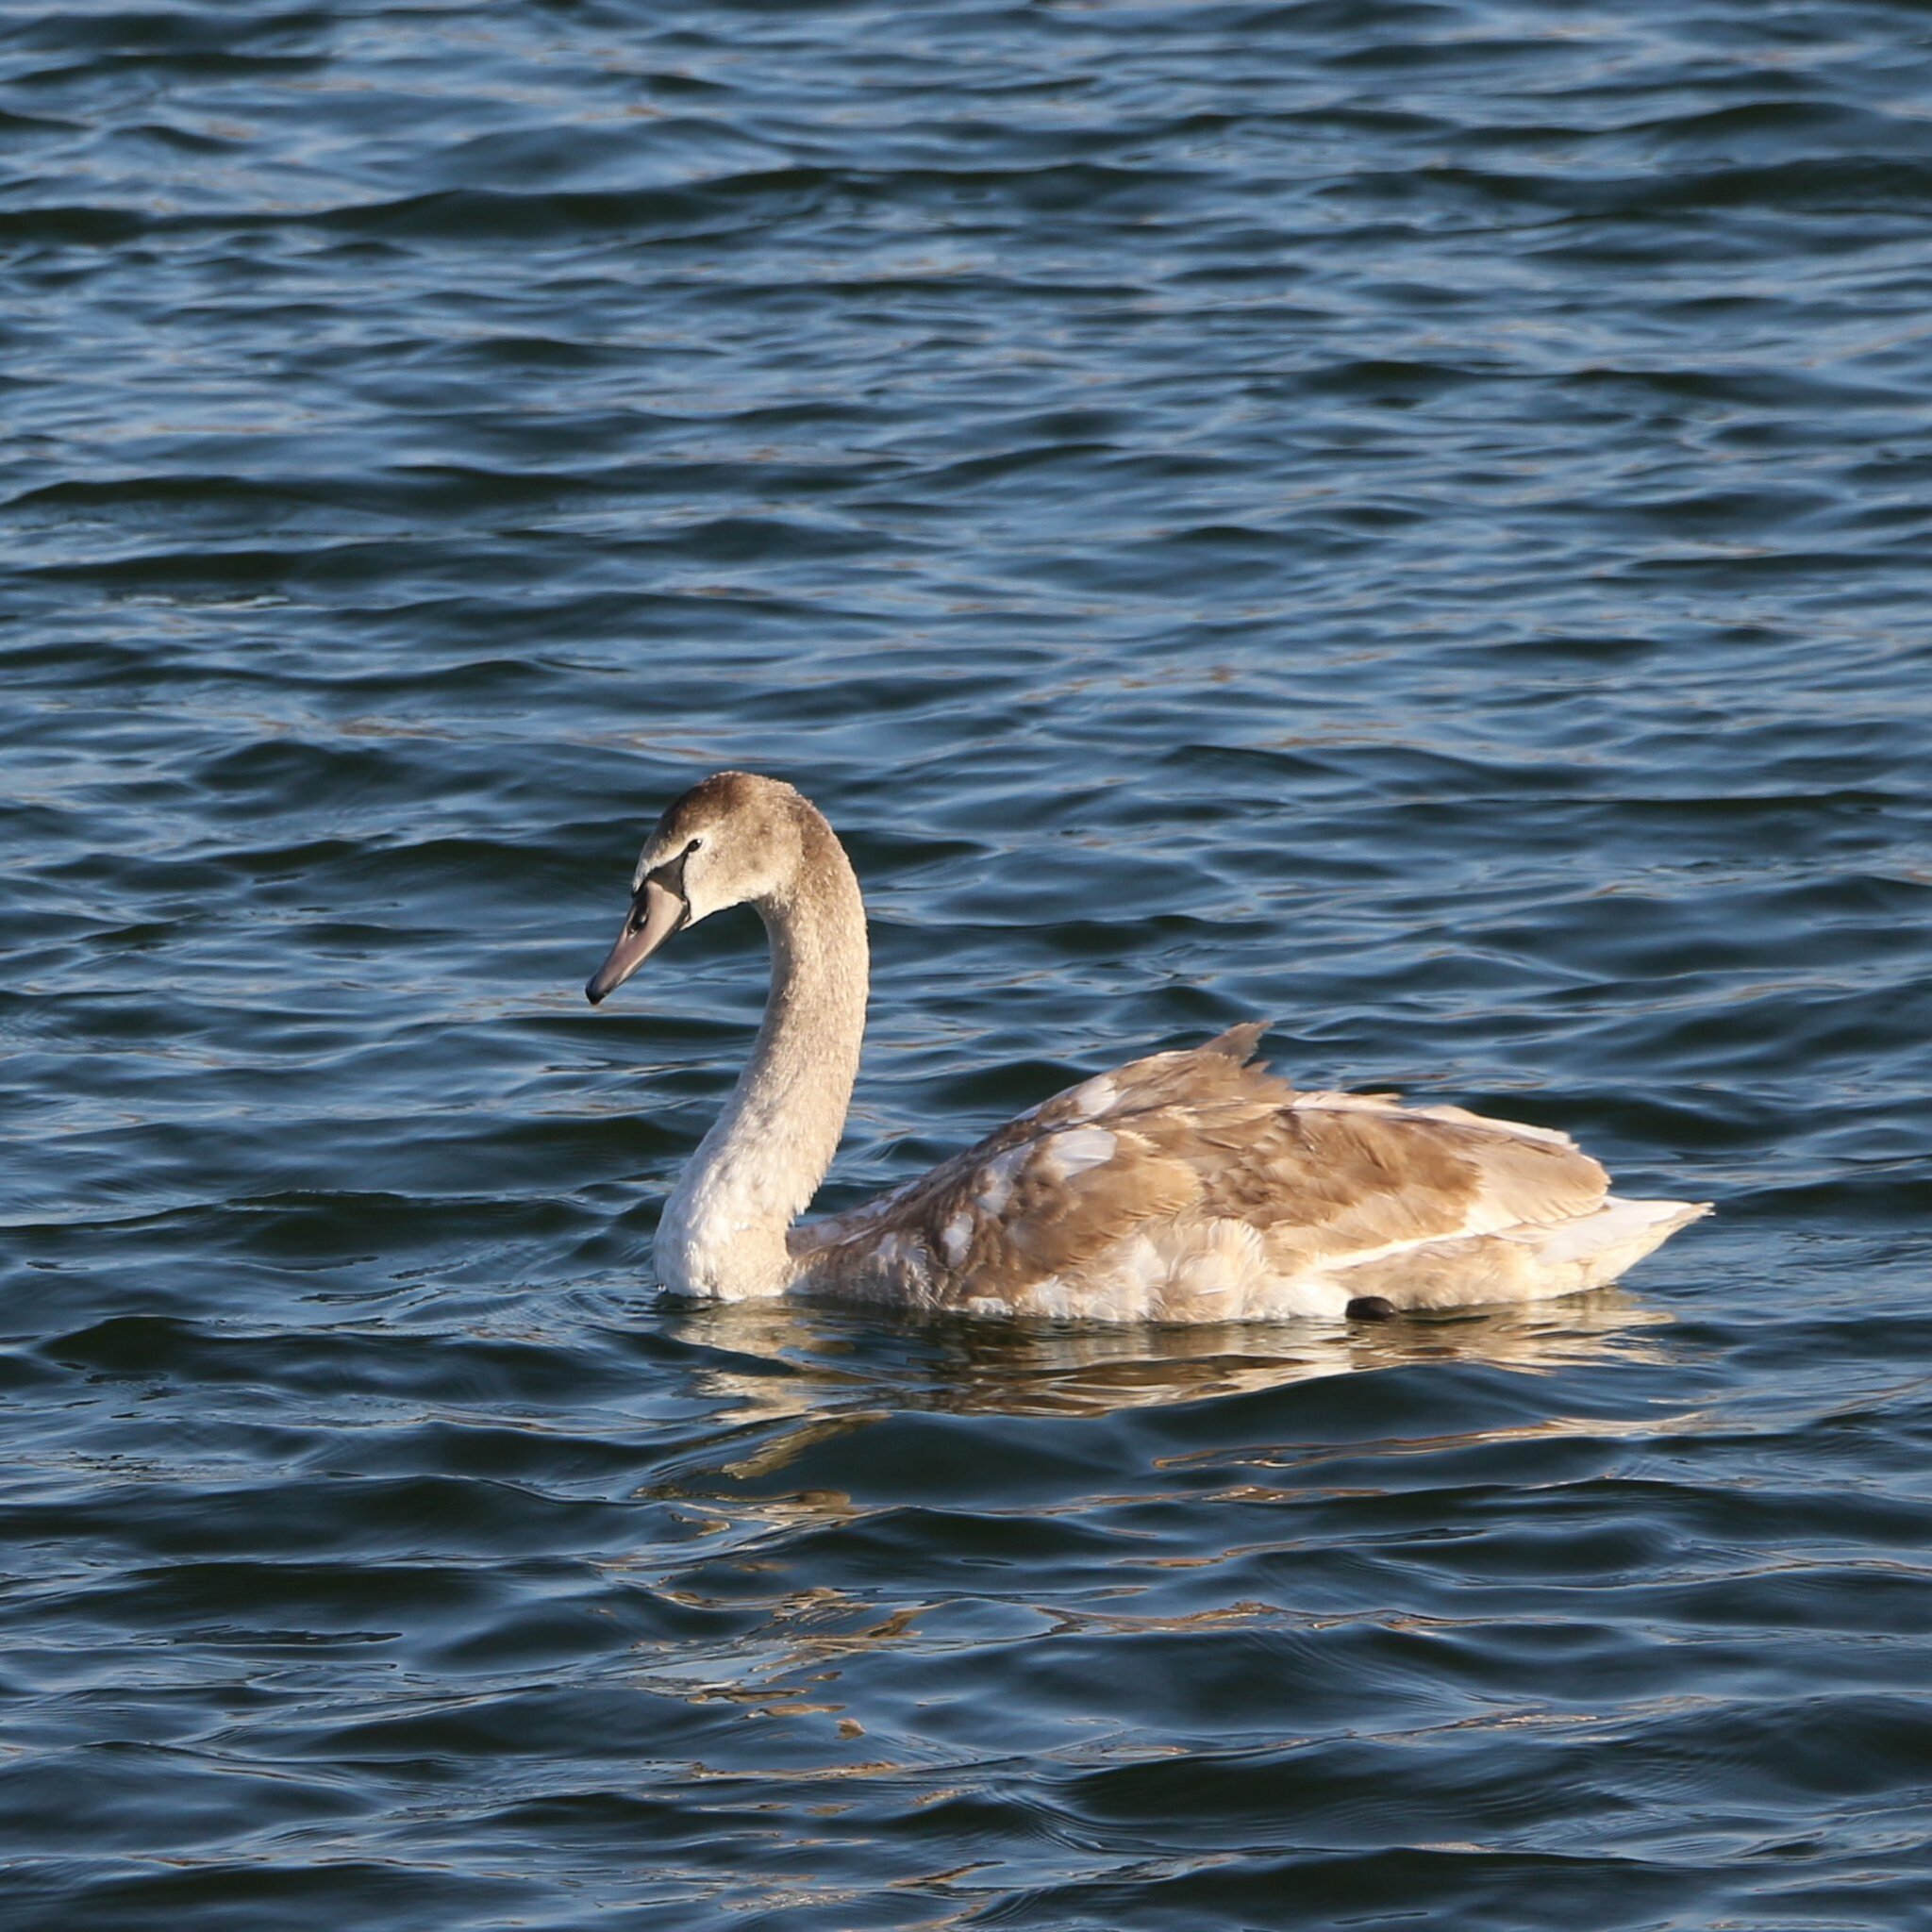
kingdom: Animalia
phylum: Chordata
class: Aves
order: Anseriformes
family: Anatidae
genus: Cygnus
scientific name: Cygnus olor
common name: Mute swan
